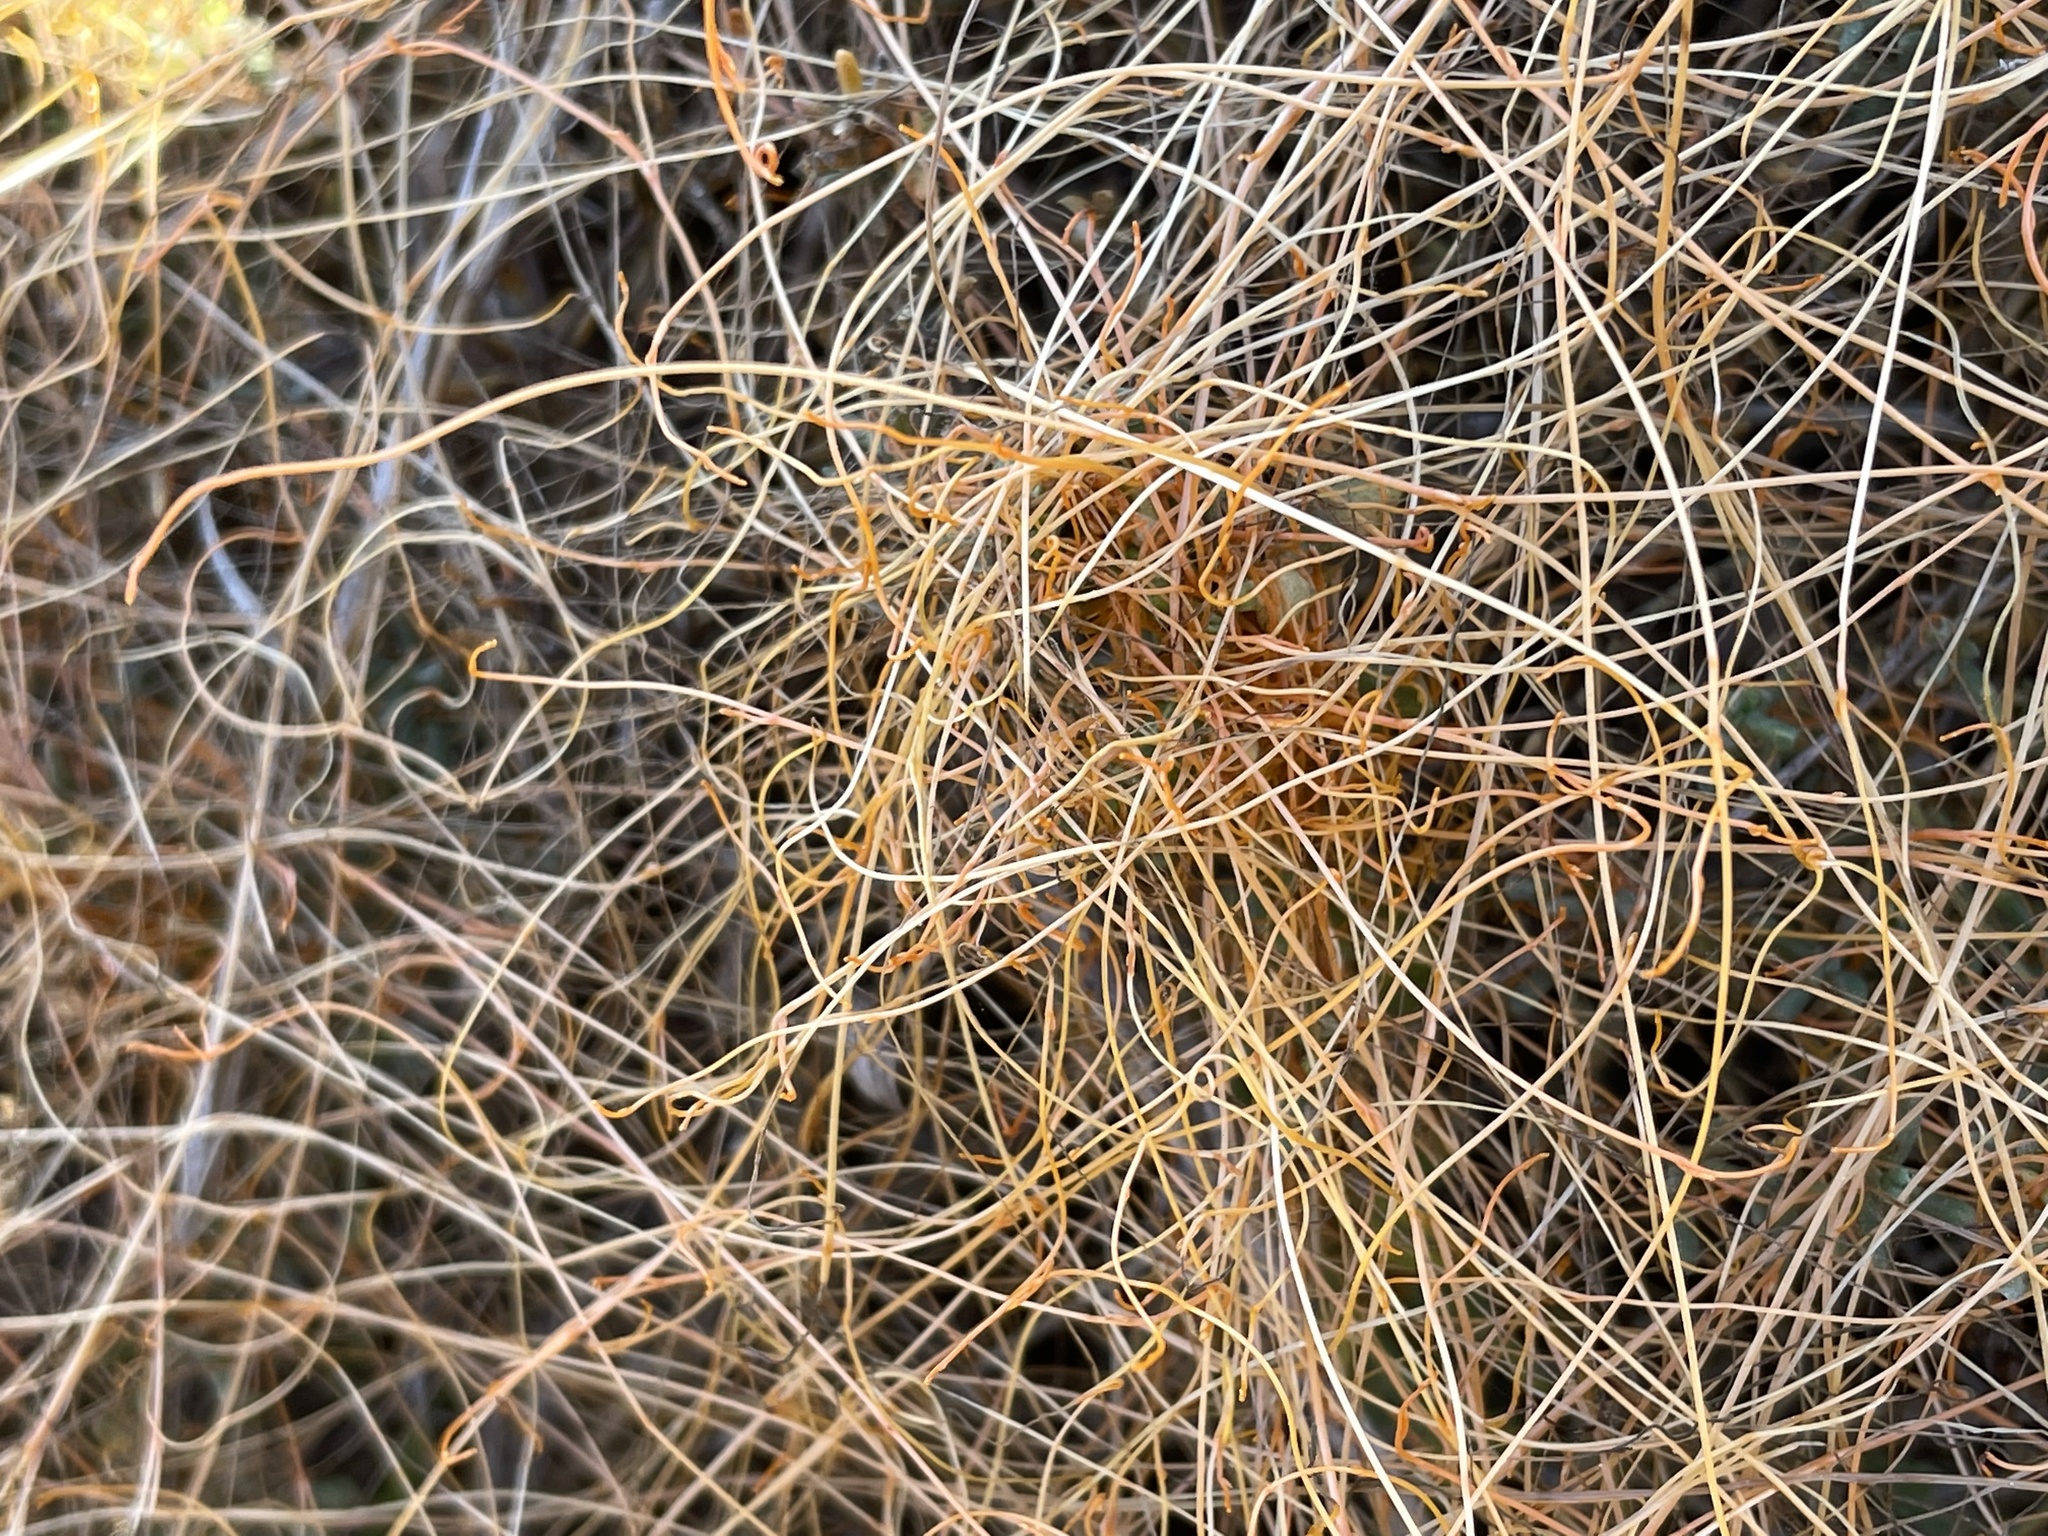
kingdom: Plantae
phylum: Tracheophyta
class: Magnoliopsida
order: Solanales
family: Convolvulaceae
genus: Cuscuta
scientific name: Cuscuta pacifica
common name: Large saltmarsh dodder
